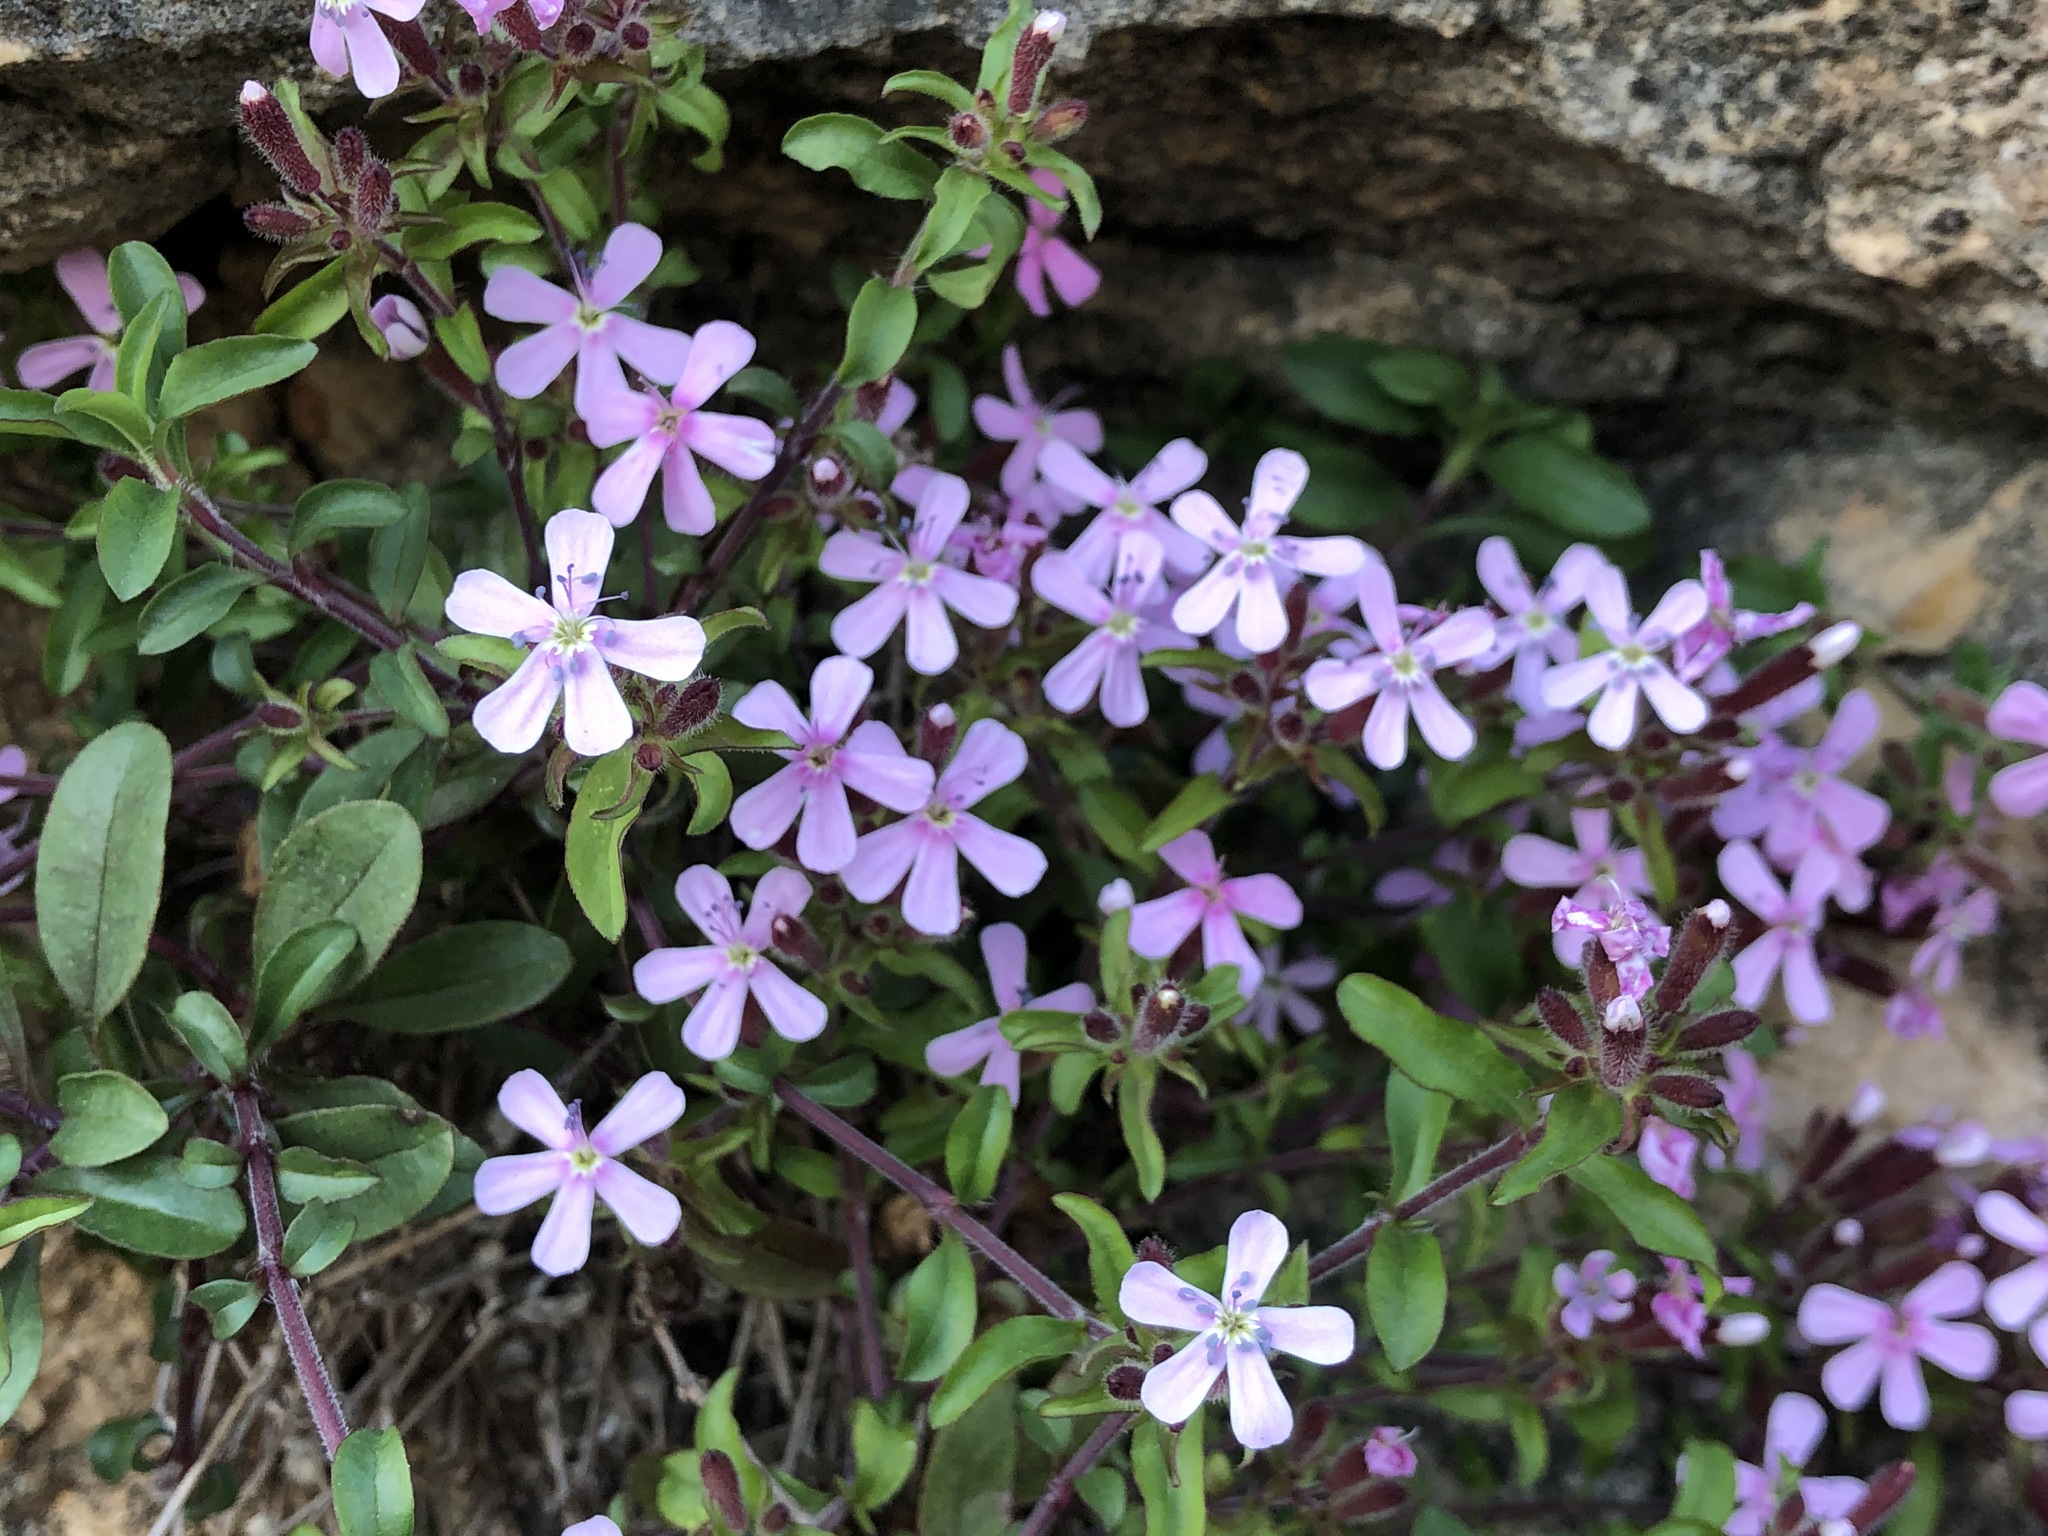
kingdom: Plantae
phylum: Tracheophyta
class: Magnoliopsida
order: Caryophyllales
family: Caryophyllaceae
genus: Saponaria
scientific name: Saponaria ocymoides
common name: Rock soapwort
